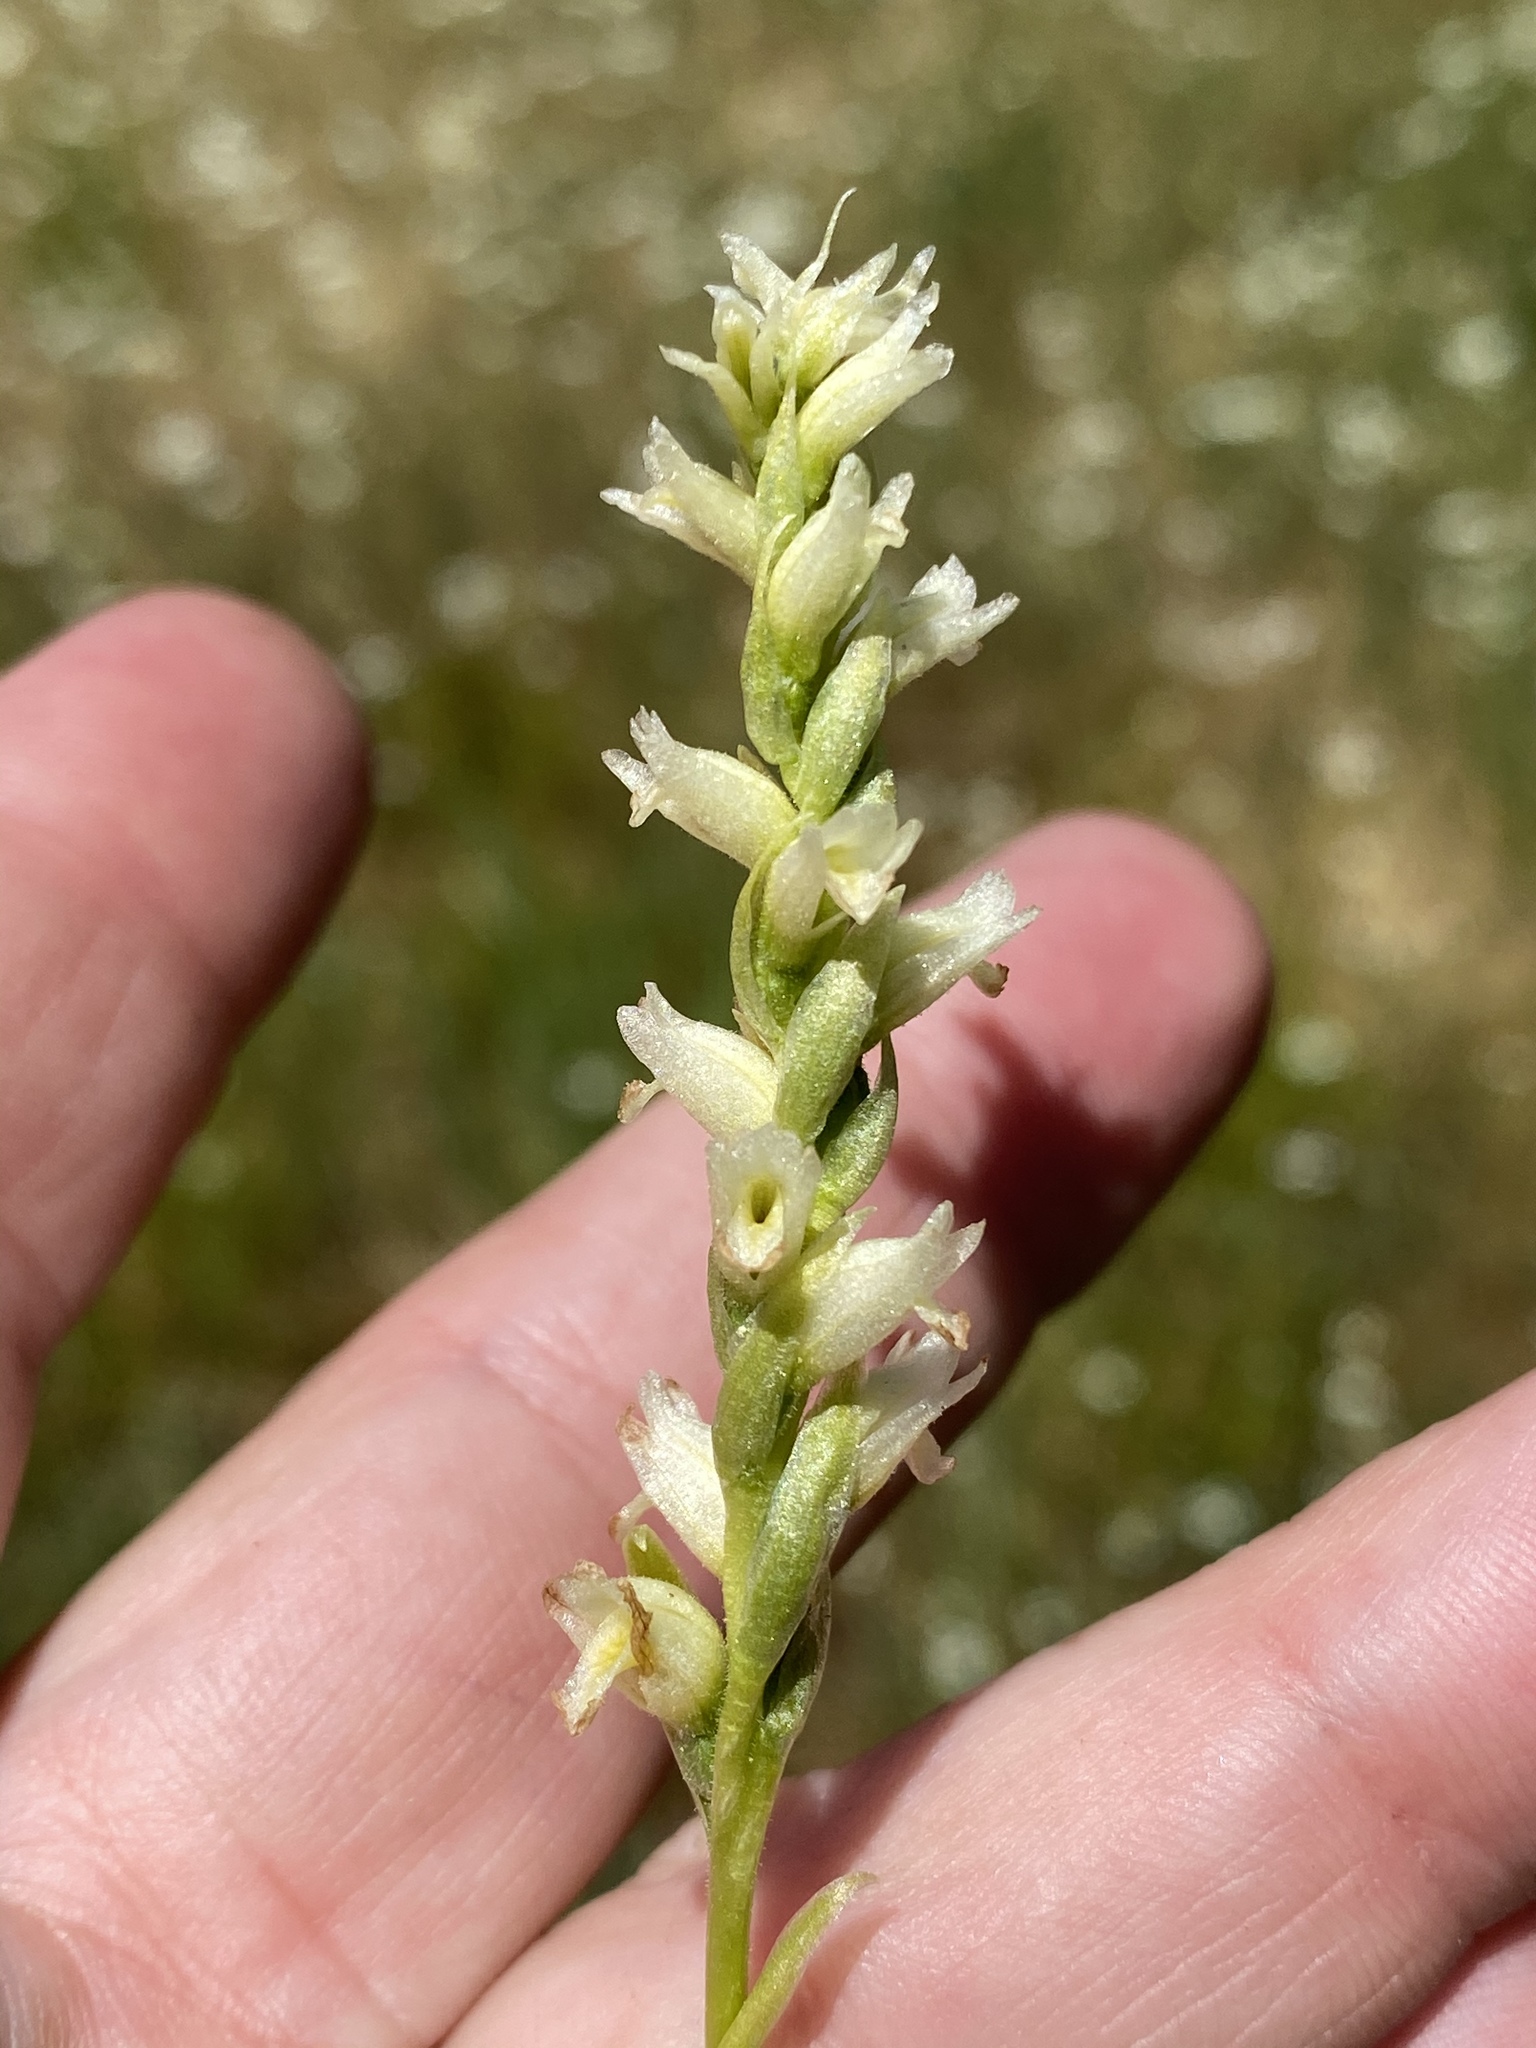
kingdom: Plantae
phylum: Tracheophyta
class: Liliopsida
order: Asparagales
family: Orchidaceae
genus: Spiranthes
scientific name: Spiranthes perexilis
